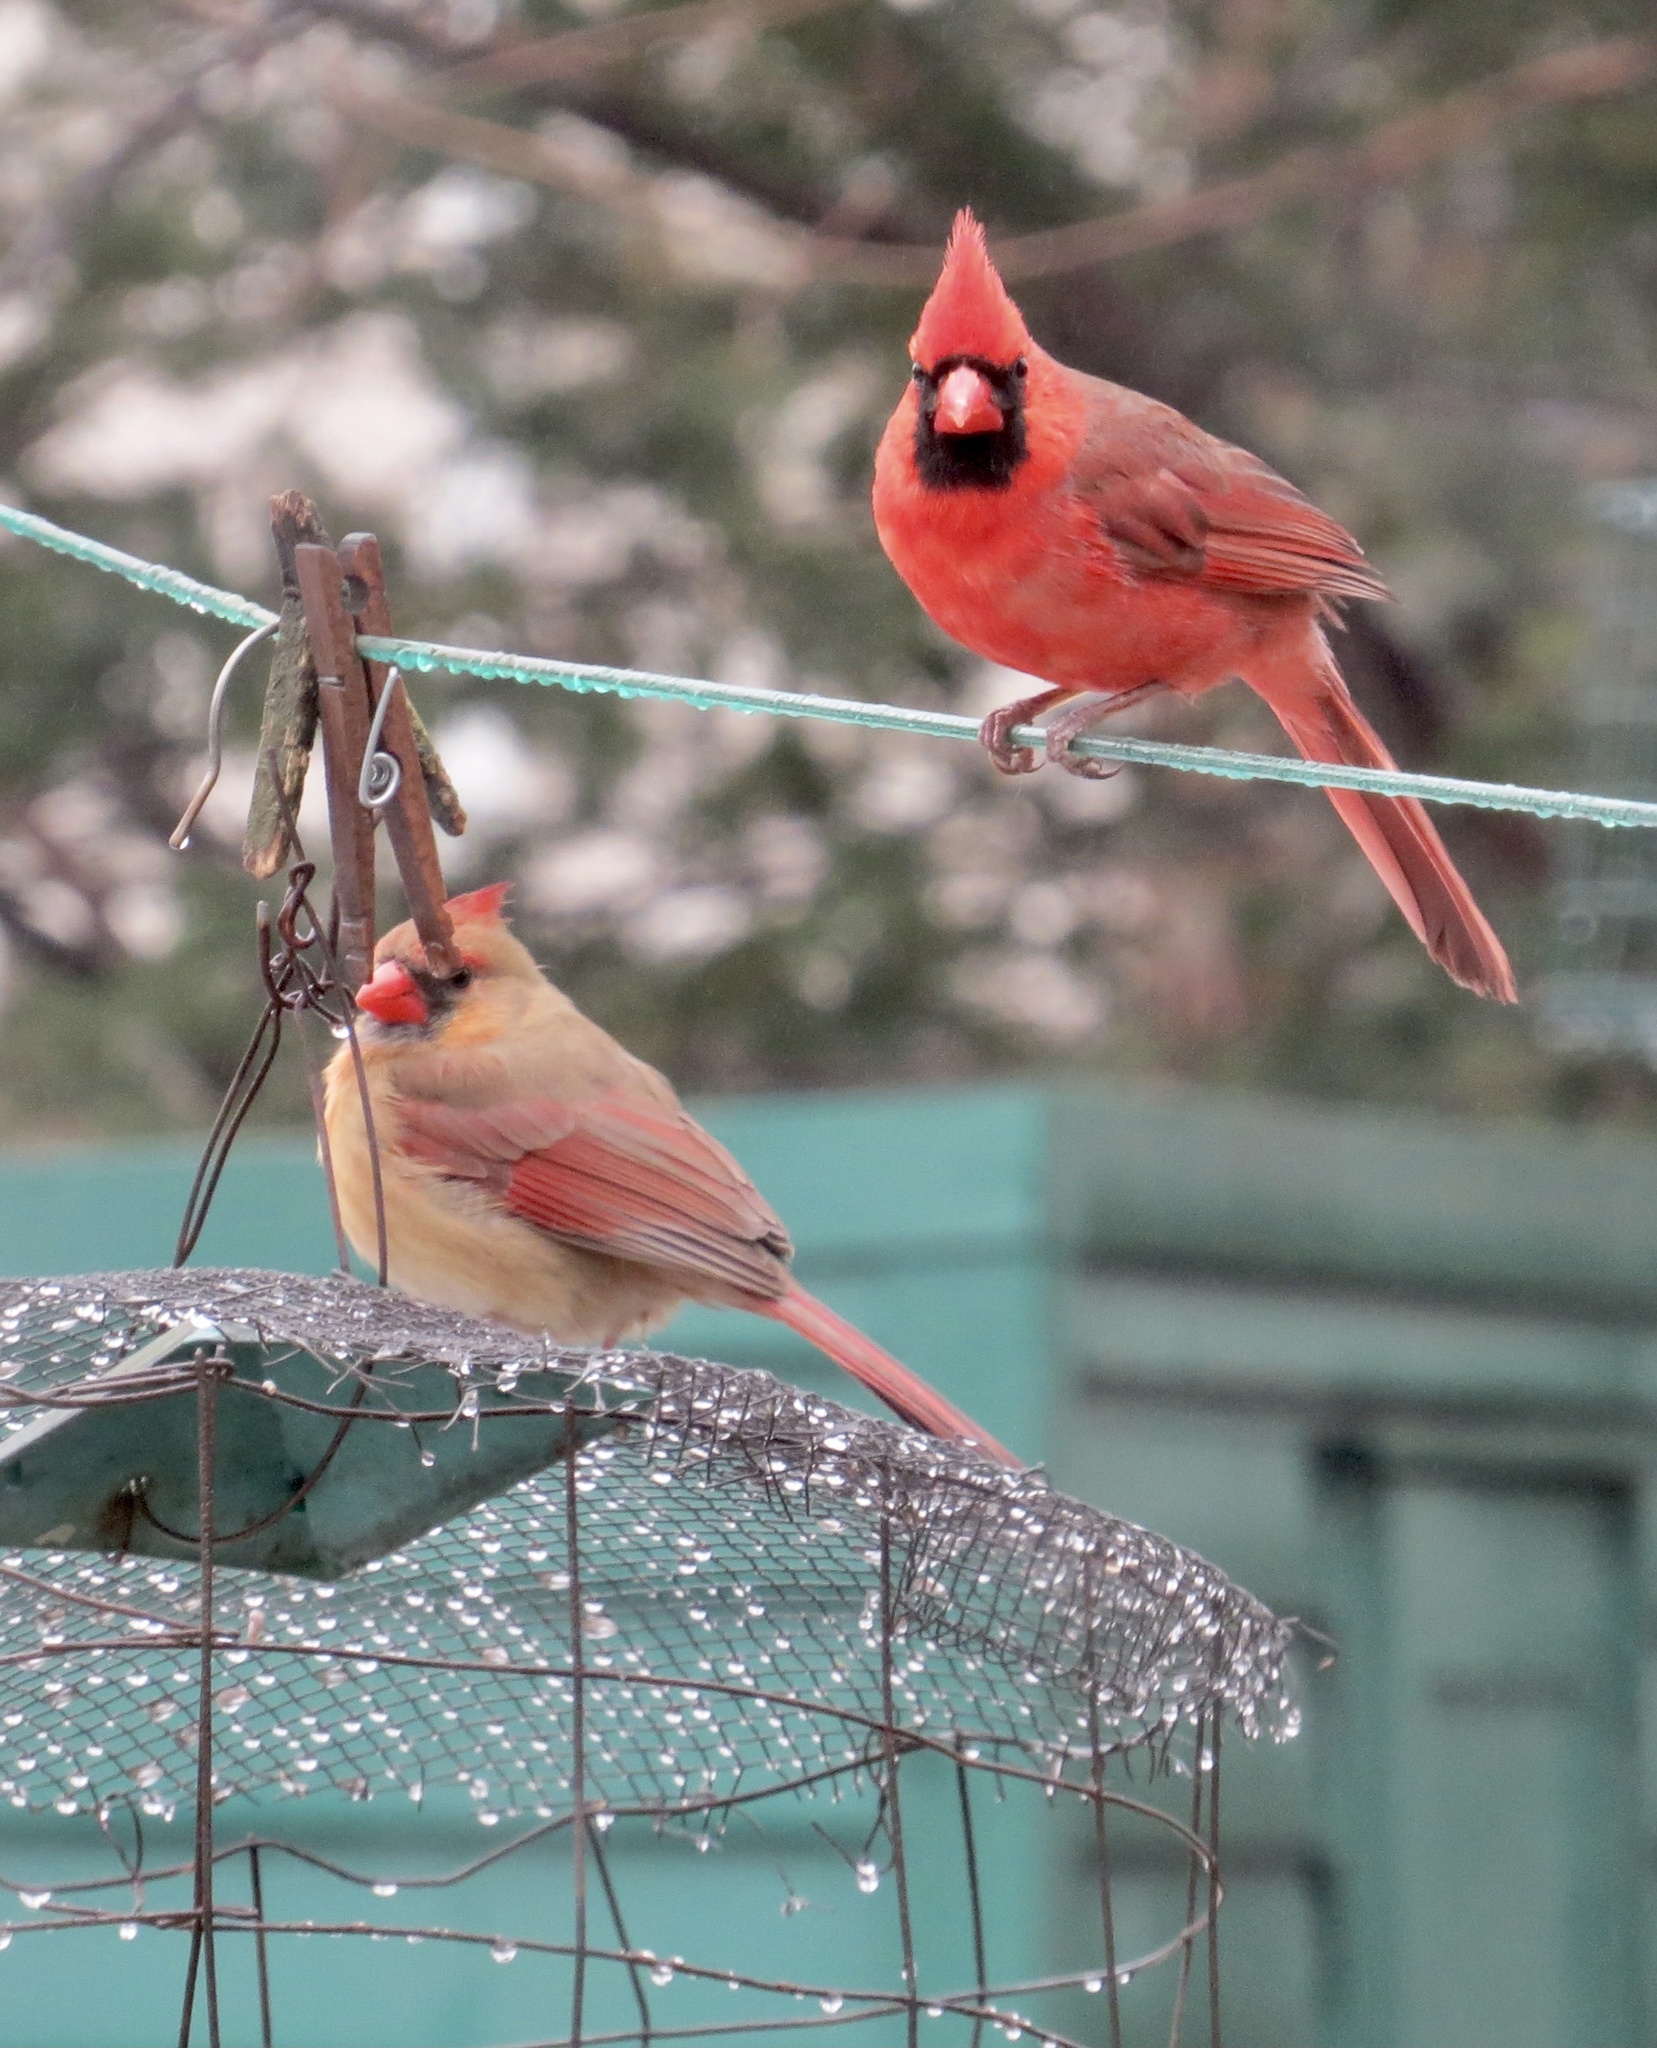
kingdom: Animalia
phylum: Chordata
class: Aves
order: Passeriformes
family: Cardinalidae
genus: Cardinalis
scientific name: Cardinalis cardinalis
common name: Northern cardinal
